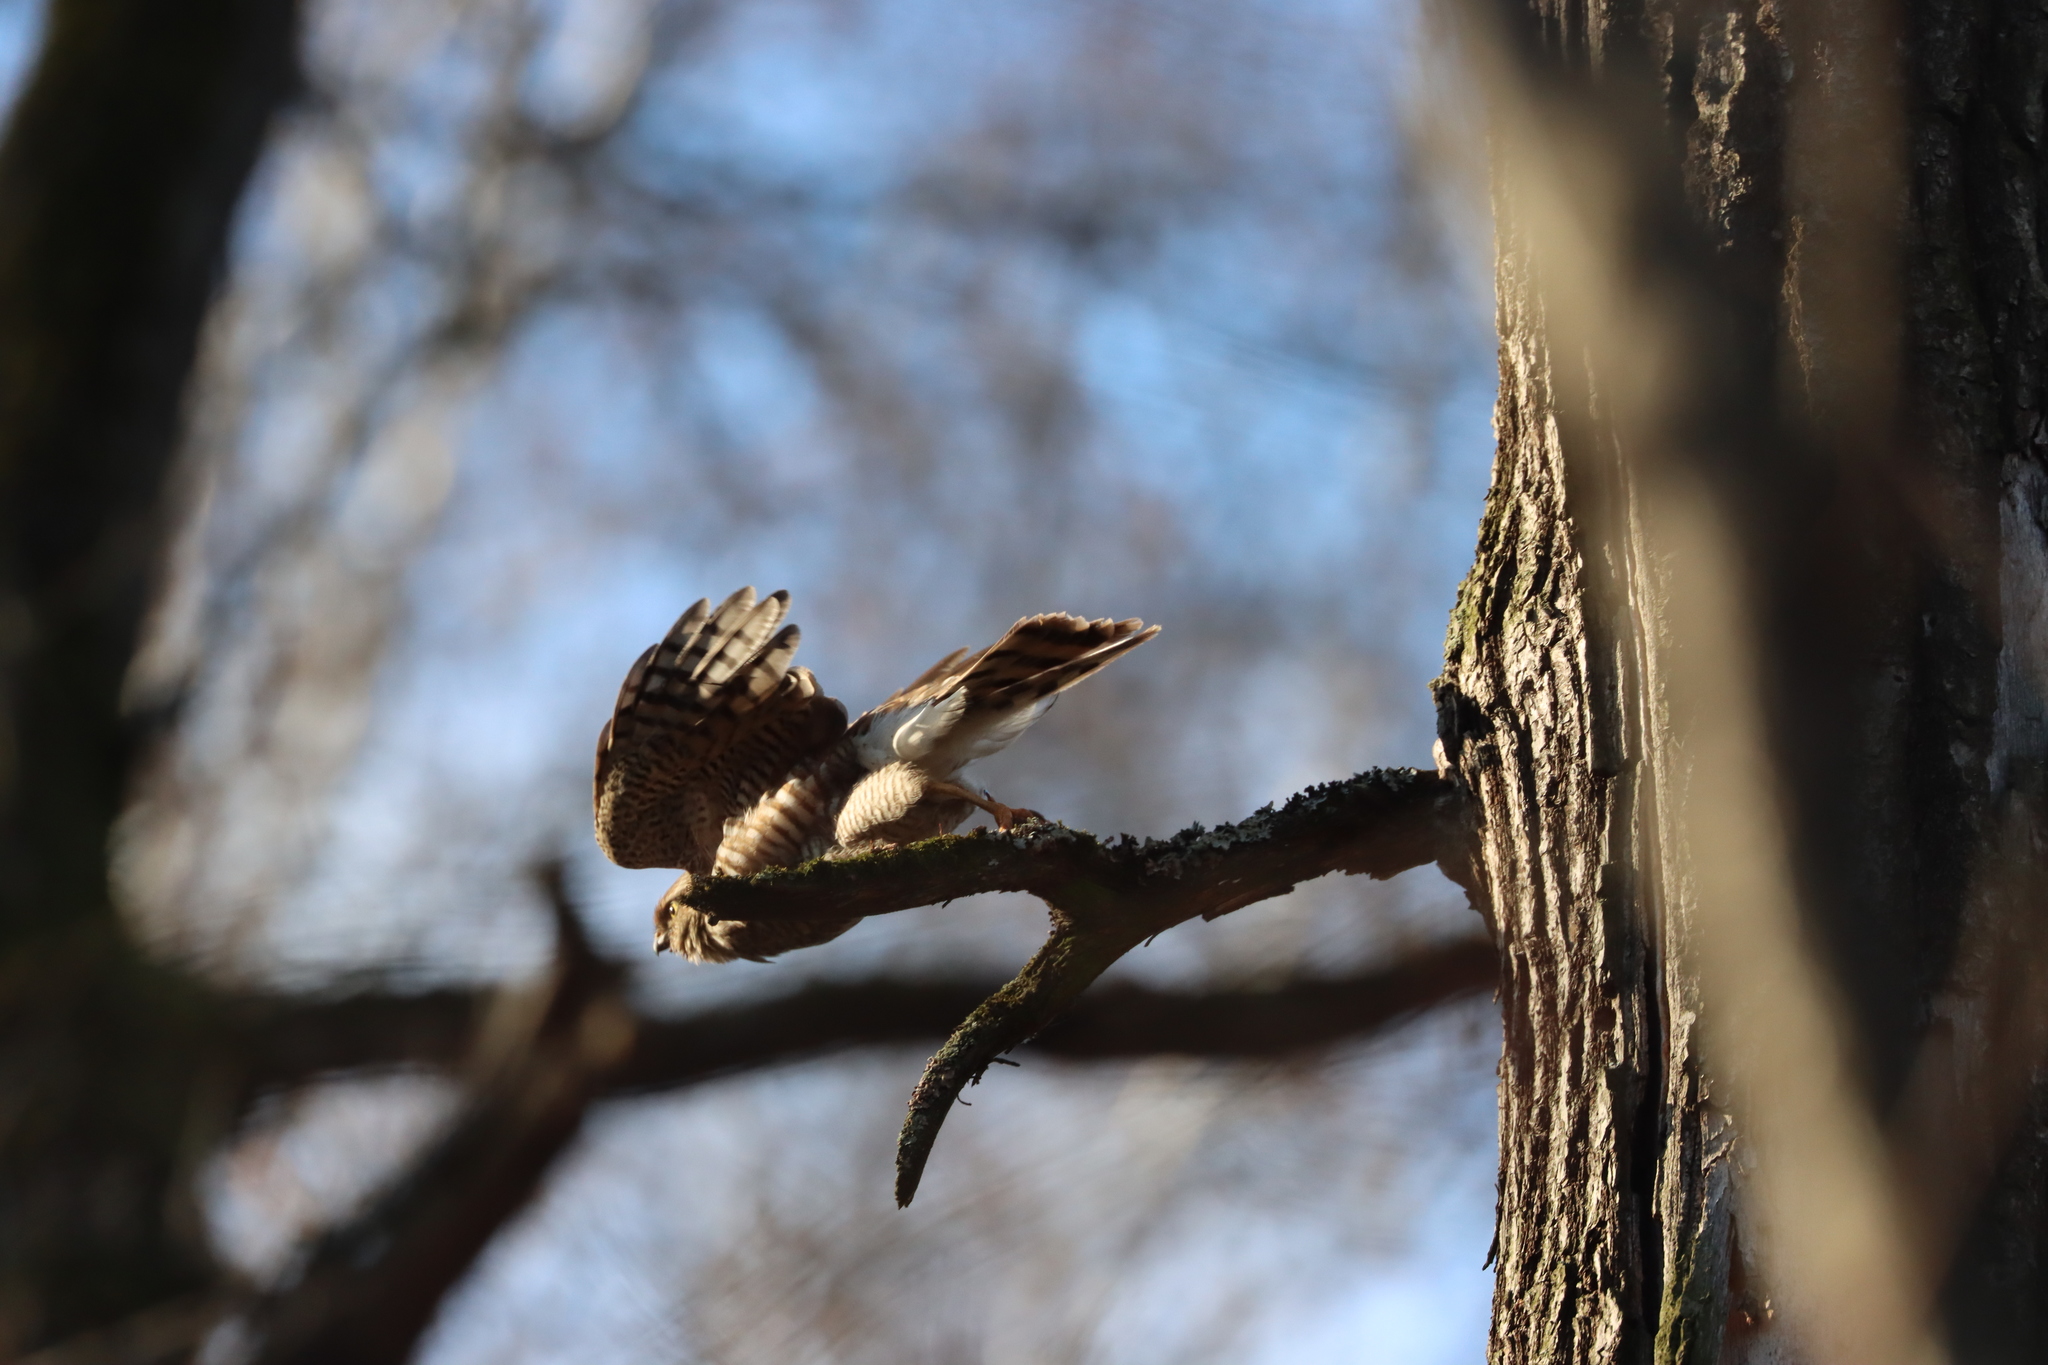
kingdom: Animalia
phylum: Chordata
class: Aves
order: Accipitriformes
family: Accipitridae
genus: Accipiter
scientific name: Accipiter nisus
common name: Eurasian sparrowhawk
